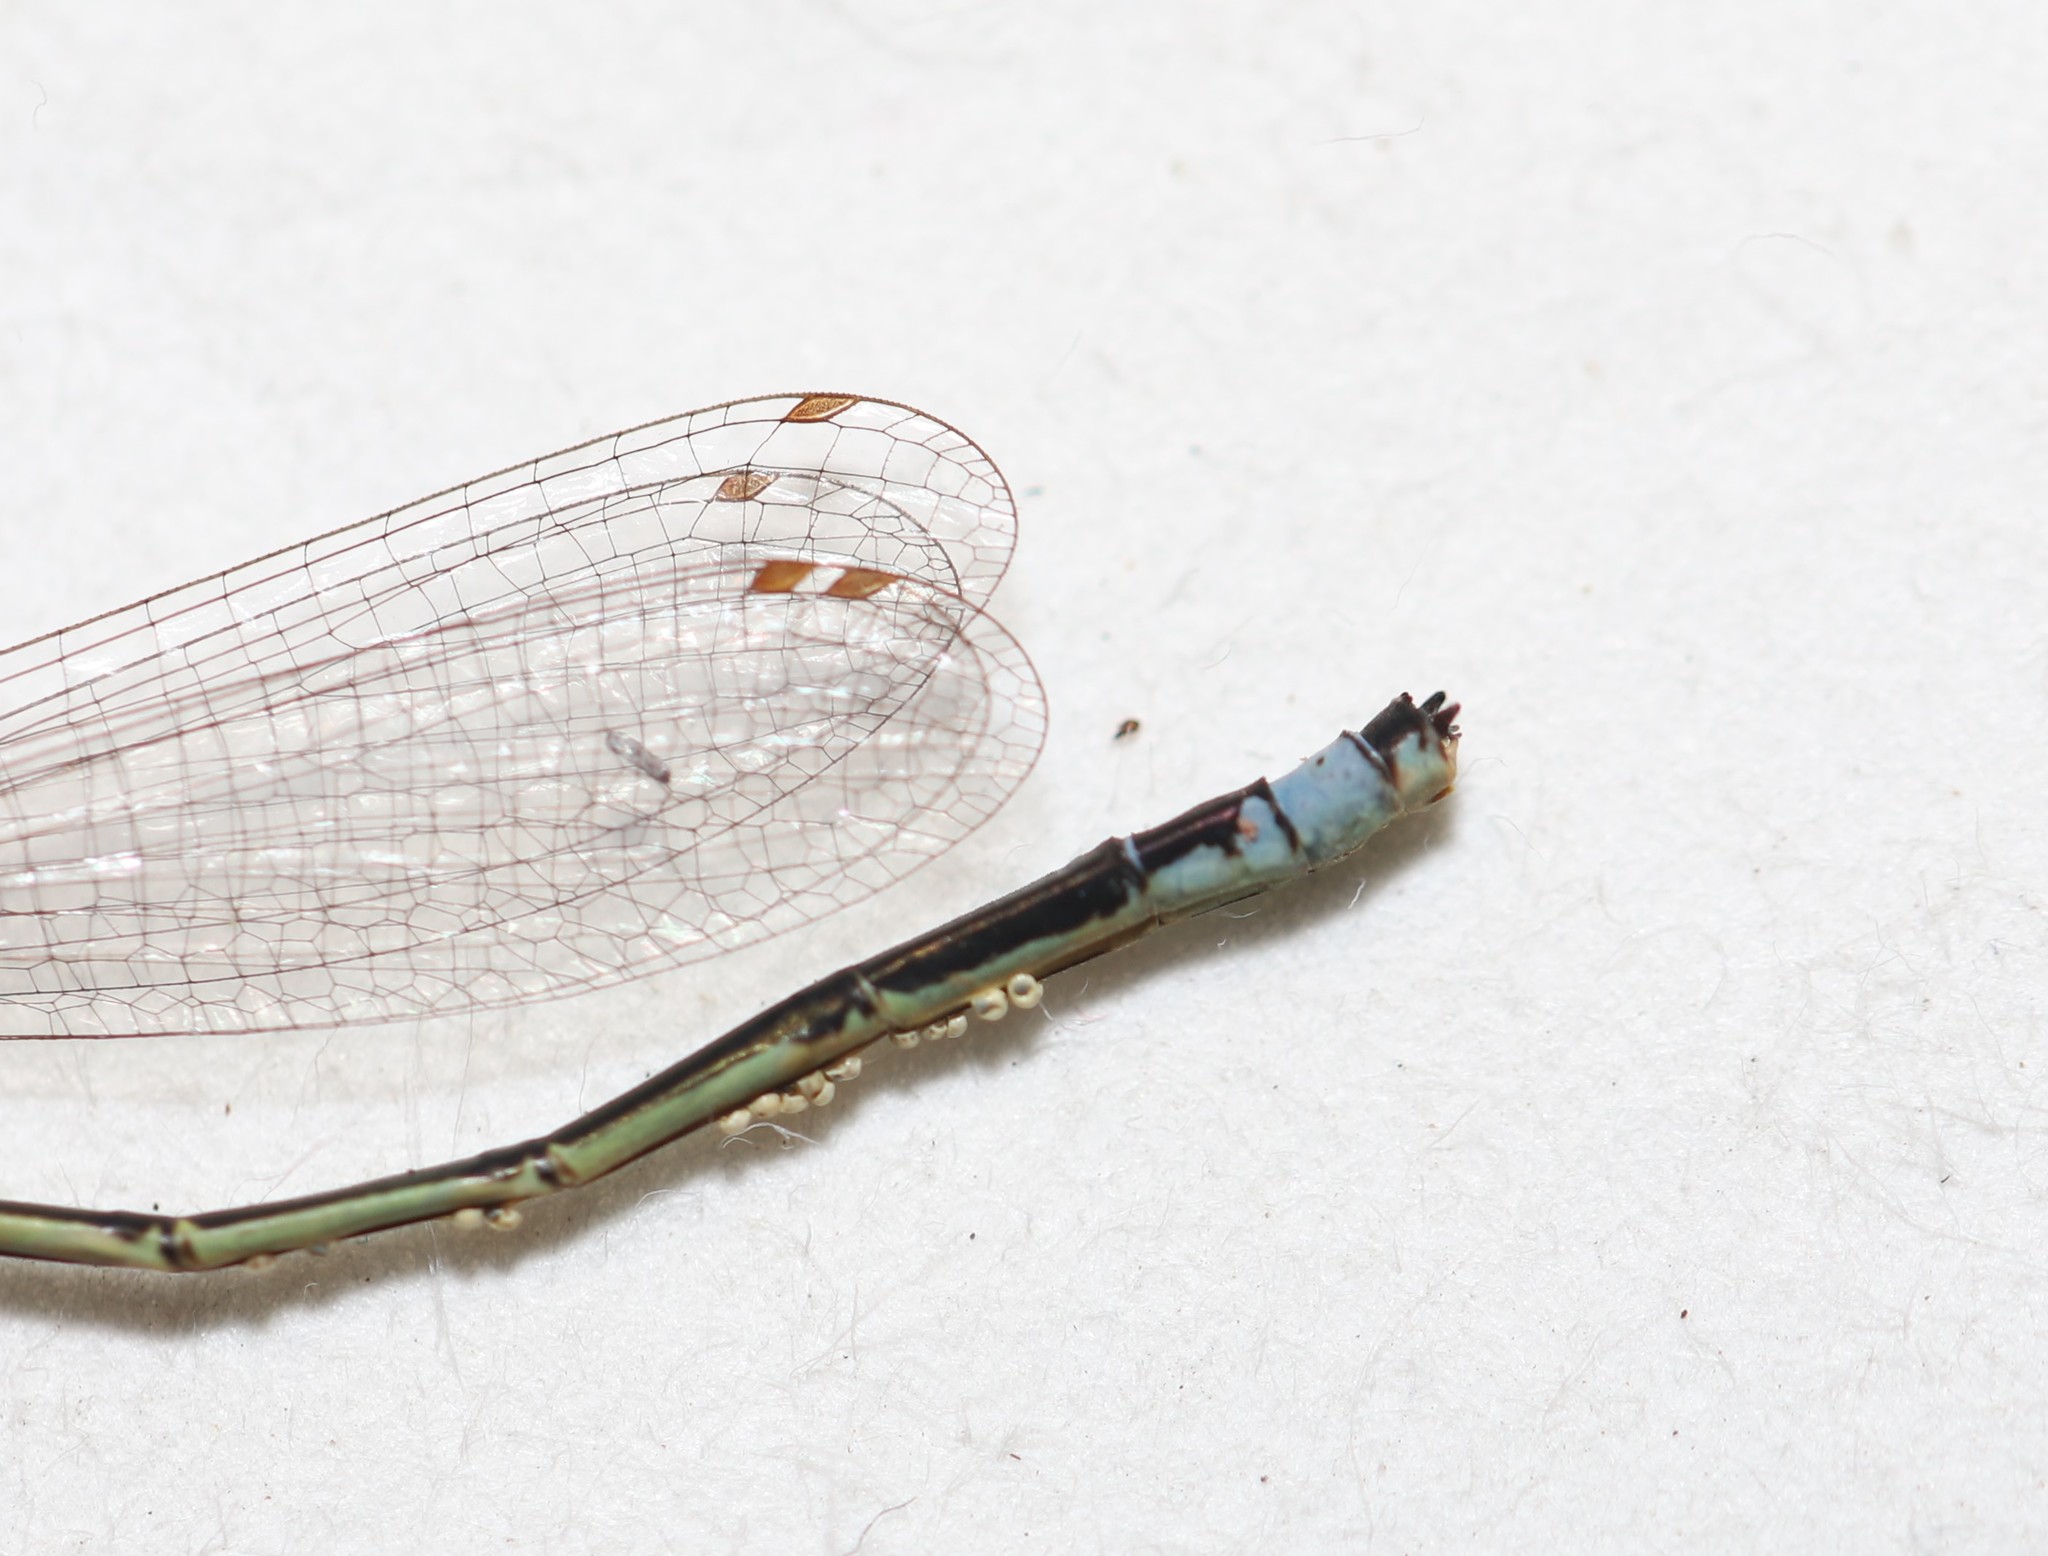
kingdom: Animalia
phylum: Arthropoda
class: Insecta
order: Odonata
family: Coenagrionidae
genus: Enallagma
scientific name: Enallagma antennatum
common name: Rainbow bluet
